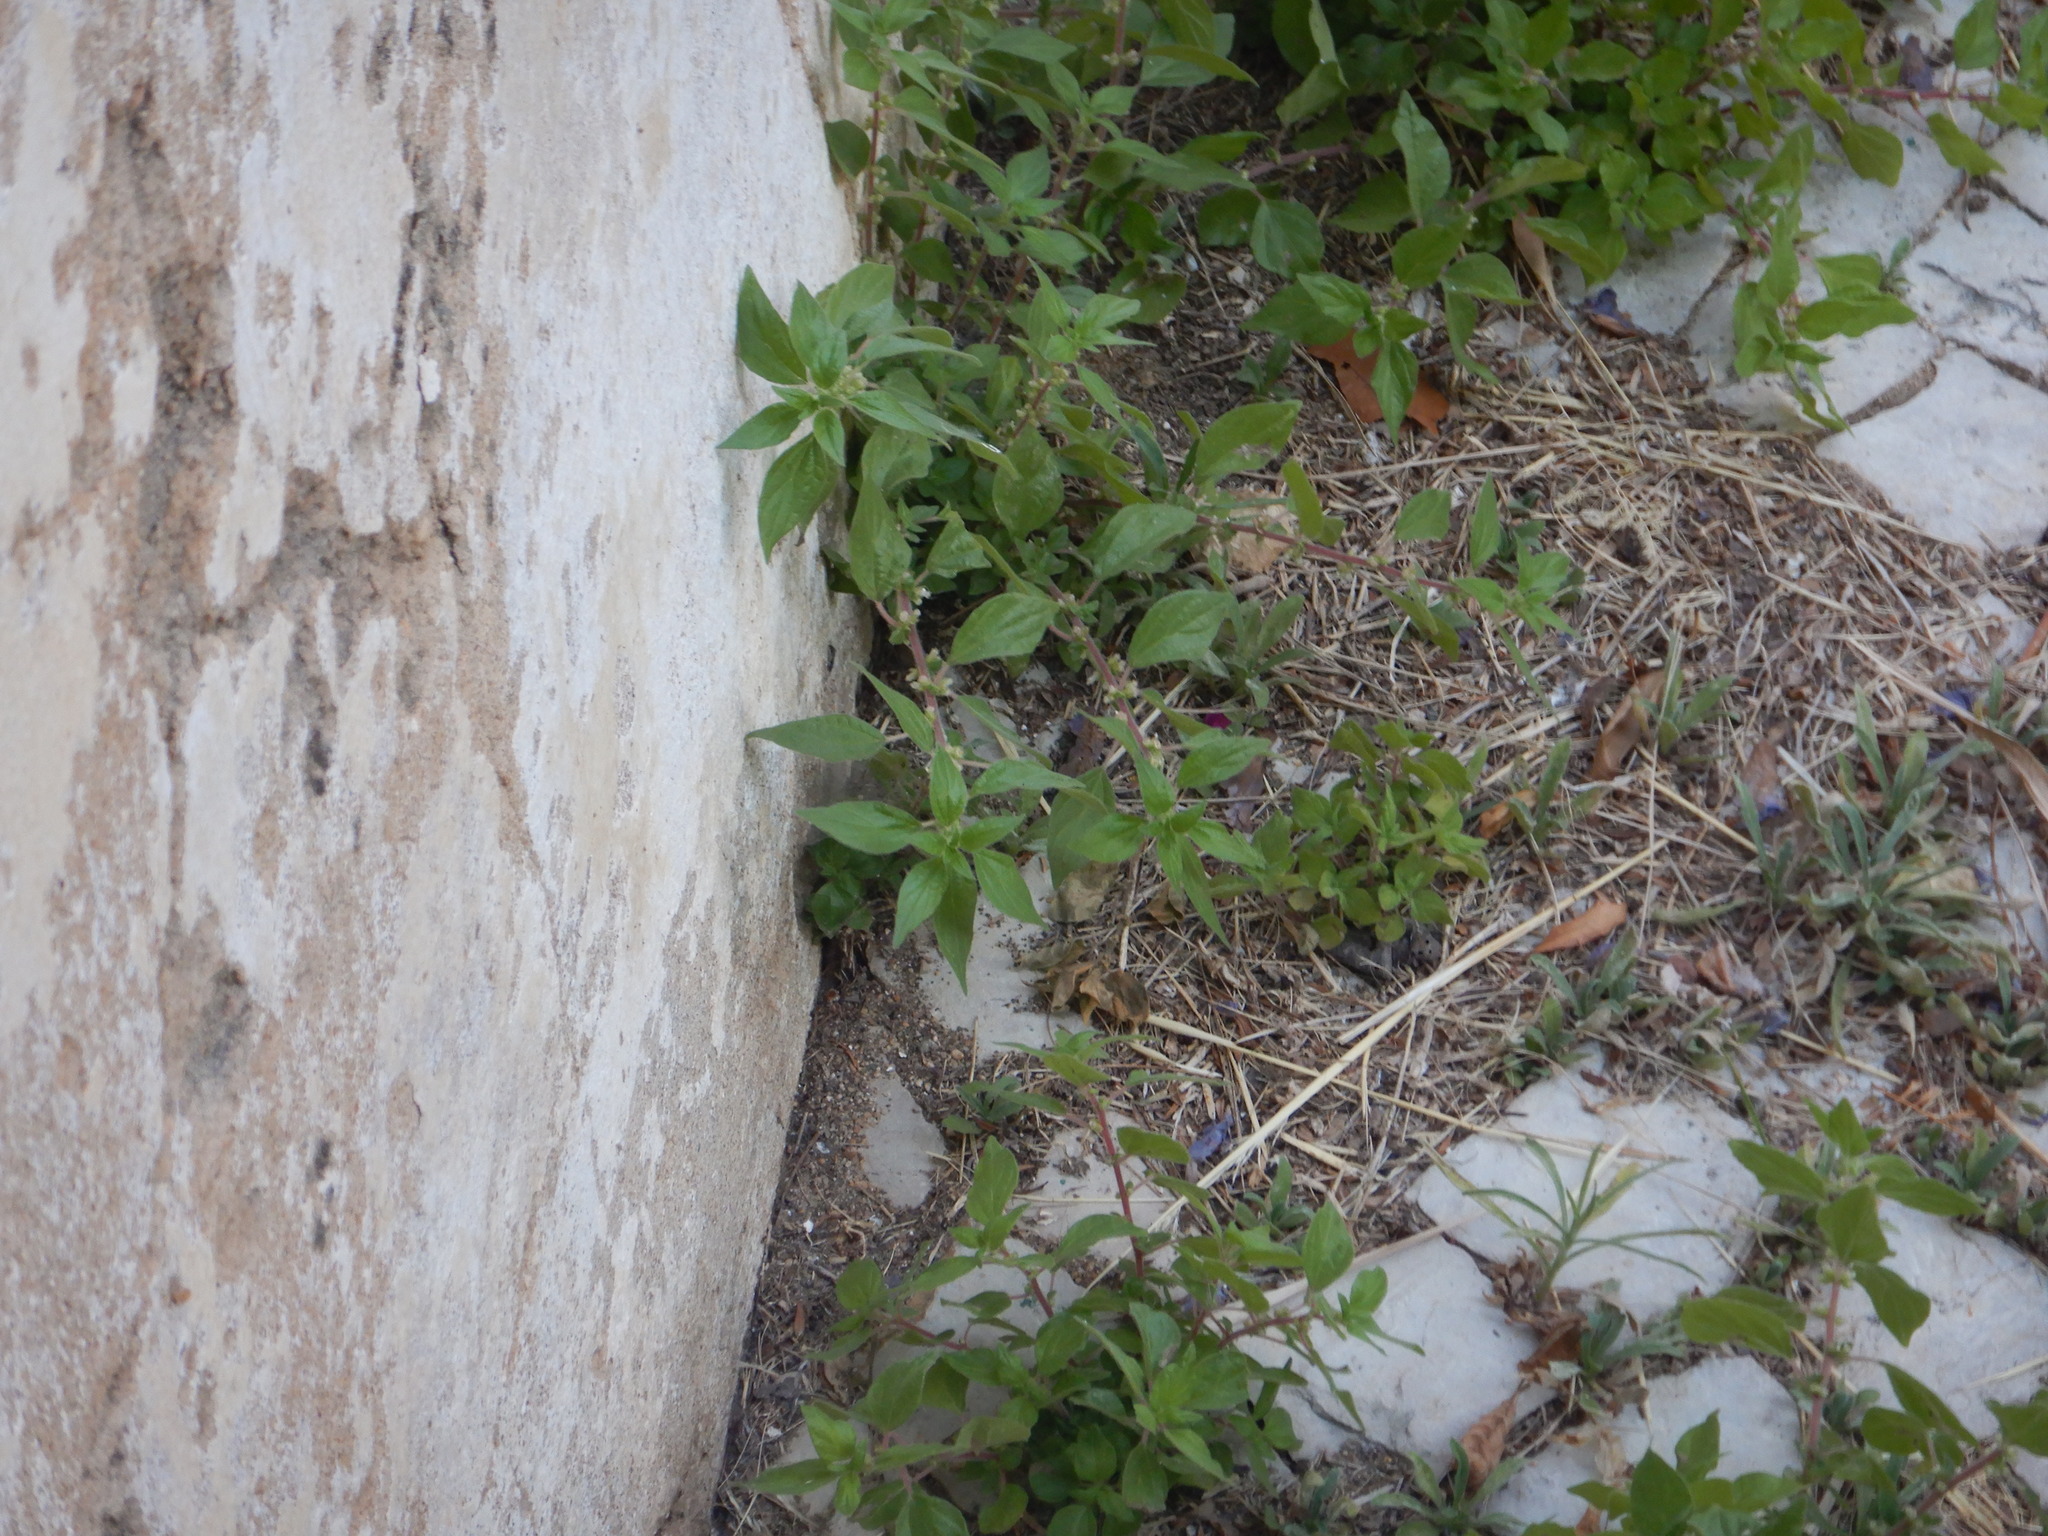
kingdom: Plantae
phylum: Tracheophyta
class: Magnoliopsida
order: Rosales
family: Urticaceae
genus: Parietaria
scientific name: Parietaria judaica
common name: Pellitory-of-the-wall
